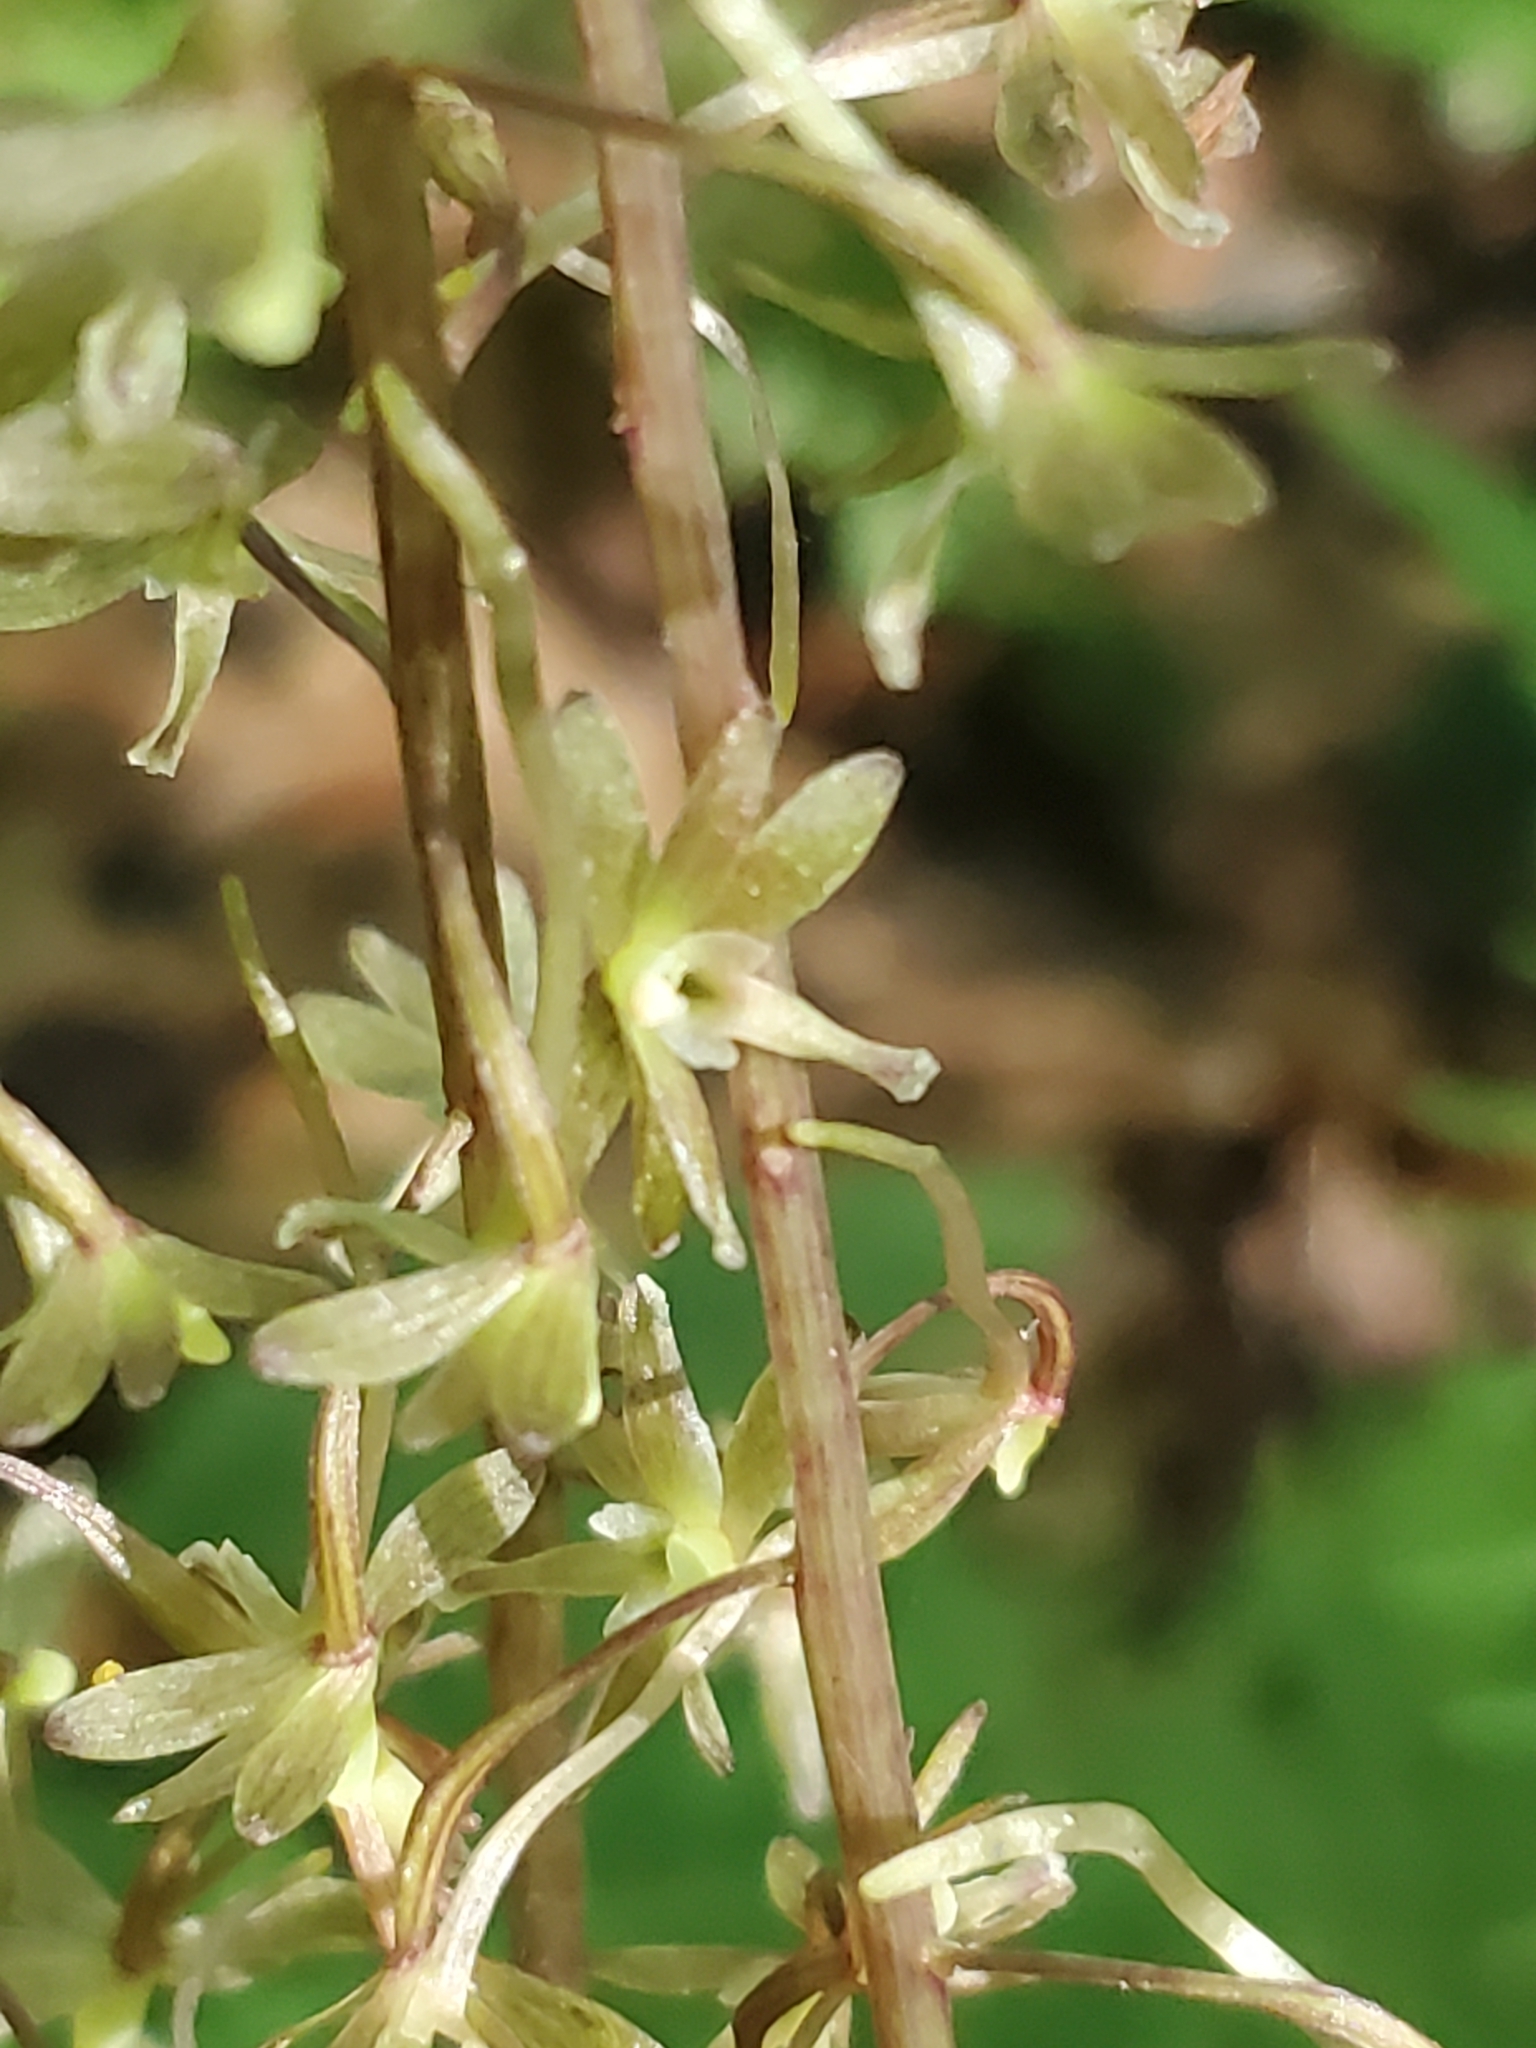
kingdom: Plantae
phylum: Tracheophyta
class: Liliopsida
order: Asparagales
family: Orchidaceae
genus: Tipularia
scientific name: Tipularia discolor
